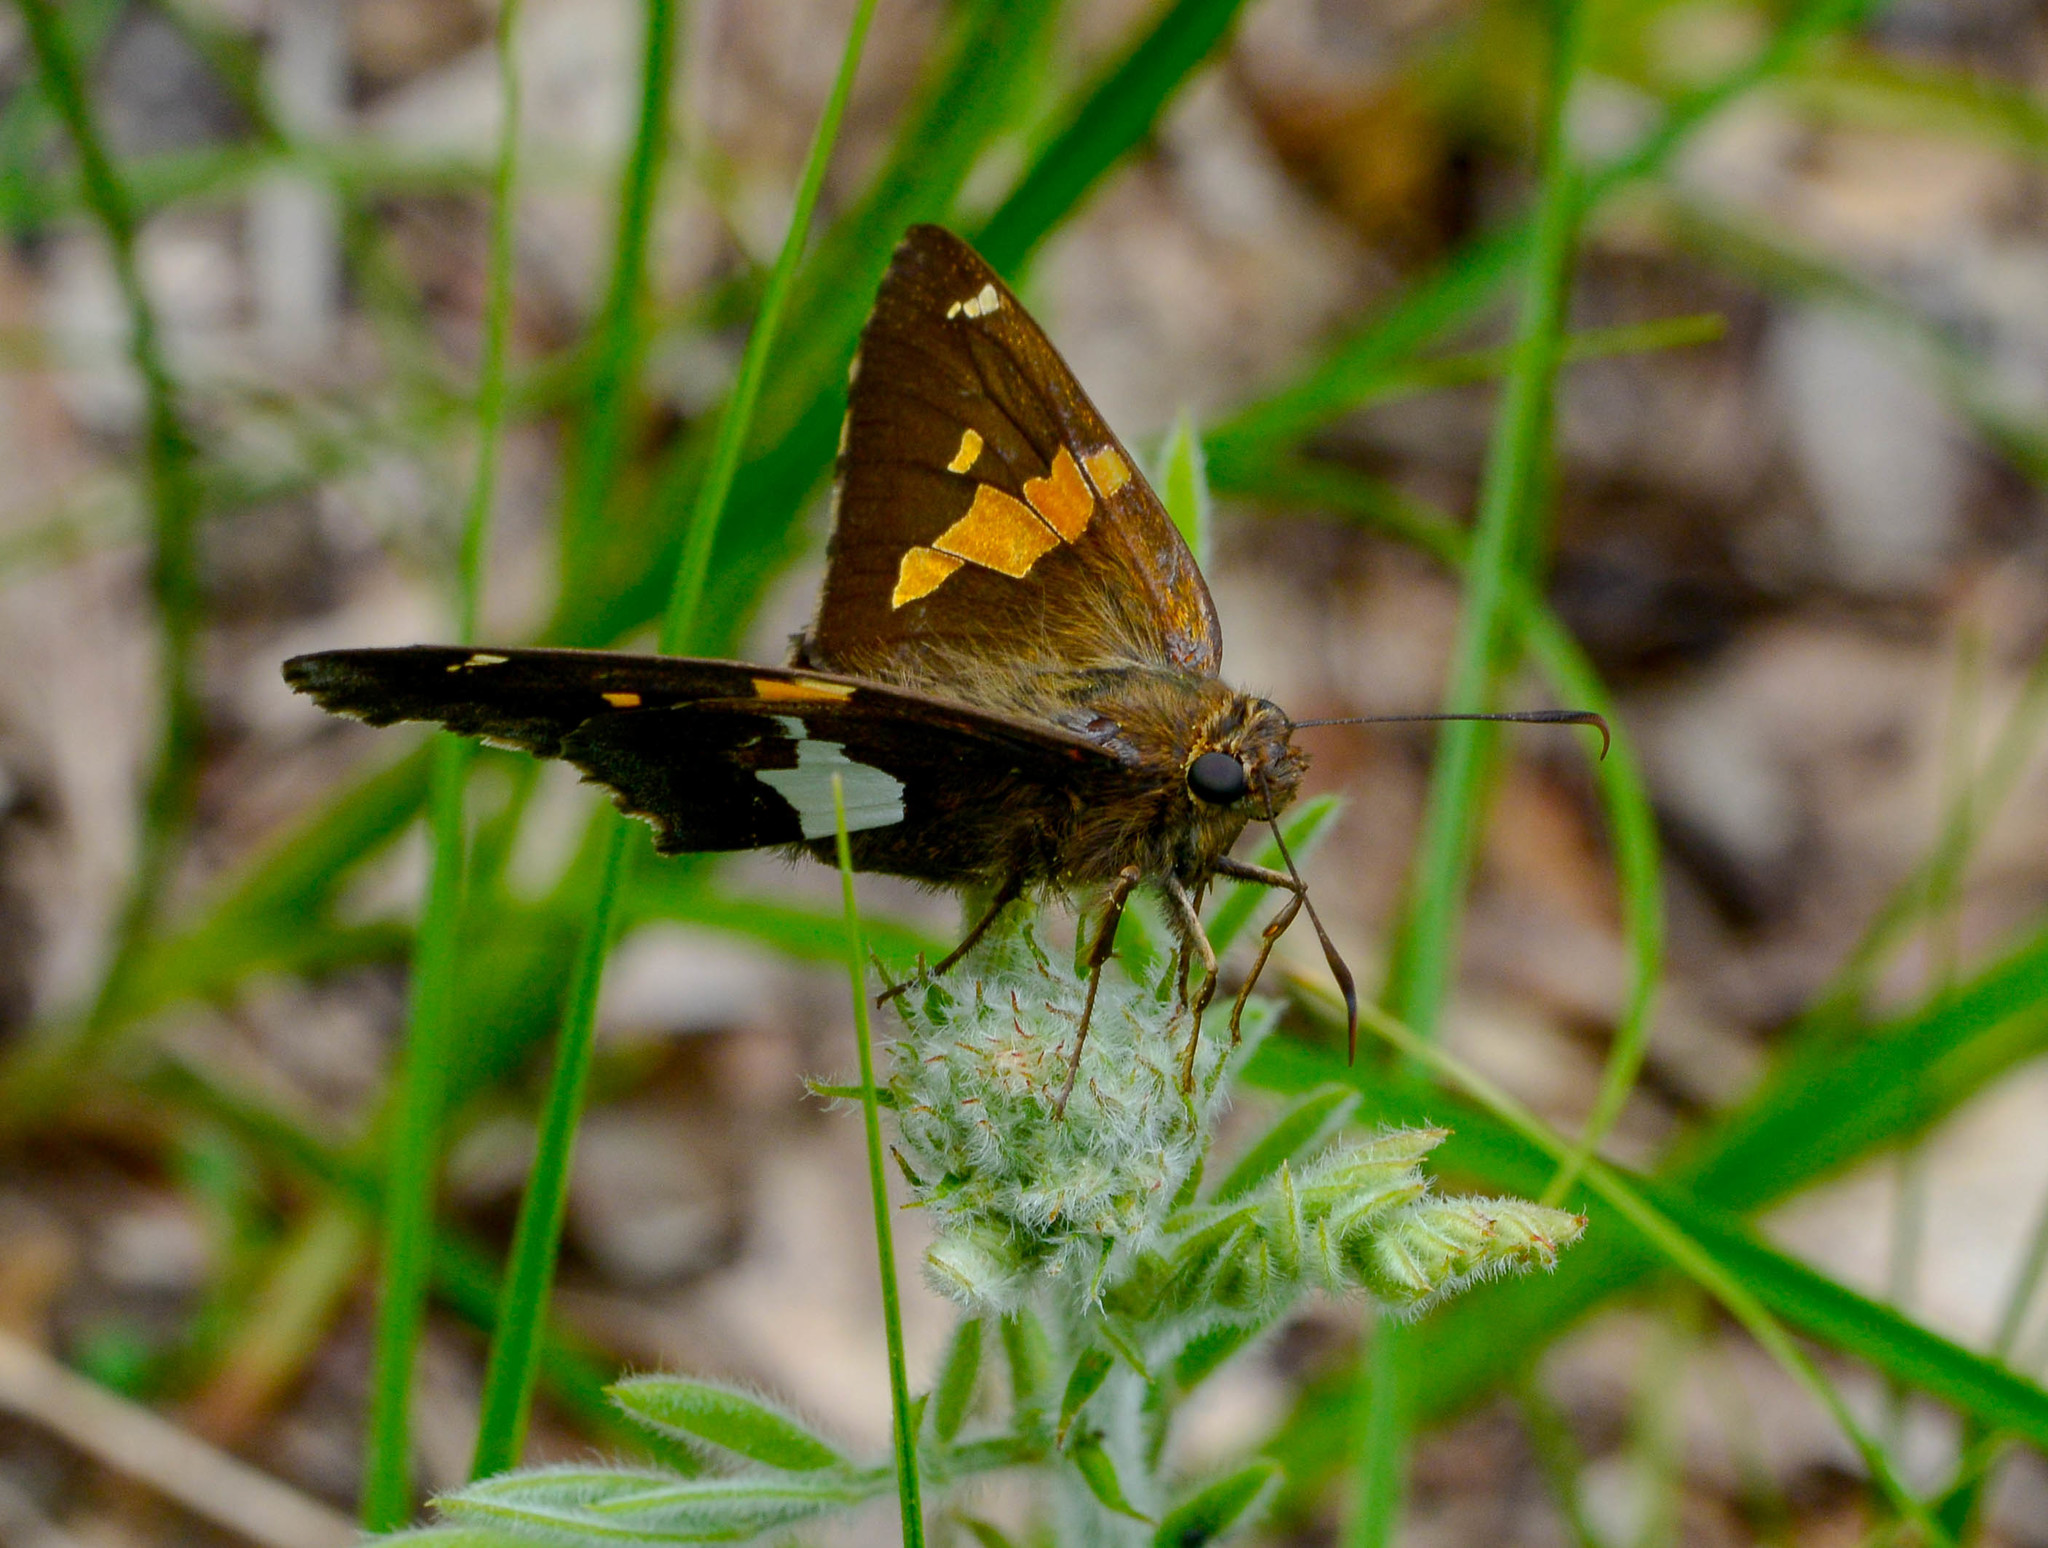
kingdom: Animalia
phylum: Arthropoda
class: Insecta
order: Lepidoptera
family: Hesperiidae
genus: Epargyreus
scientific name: Epargyreus clarus
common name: Silver-spotted skipper
